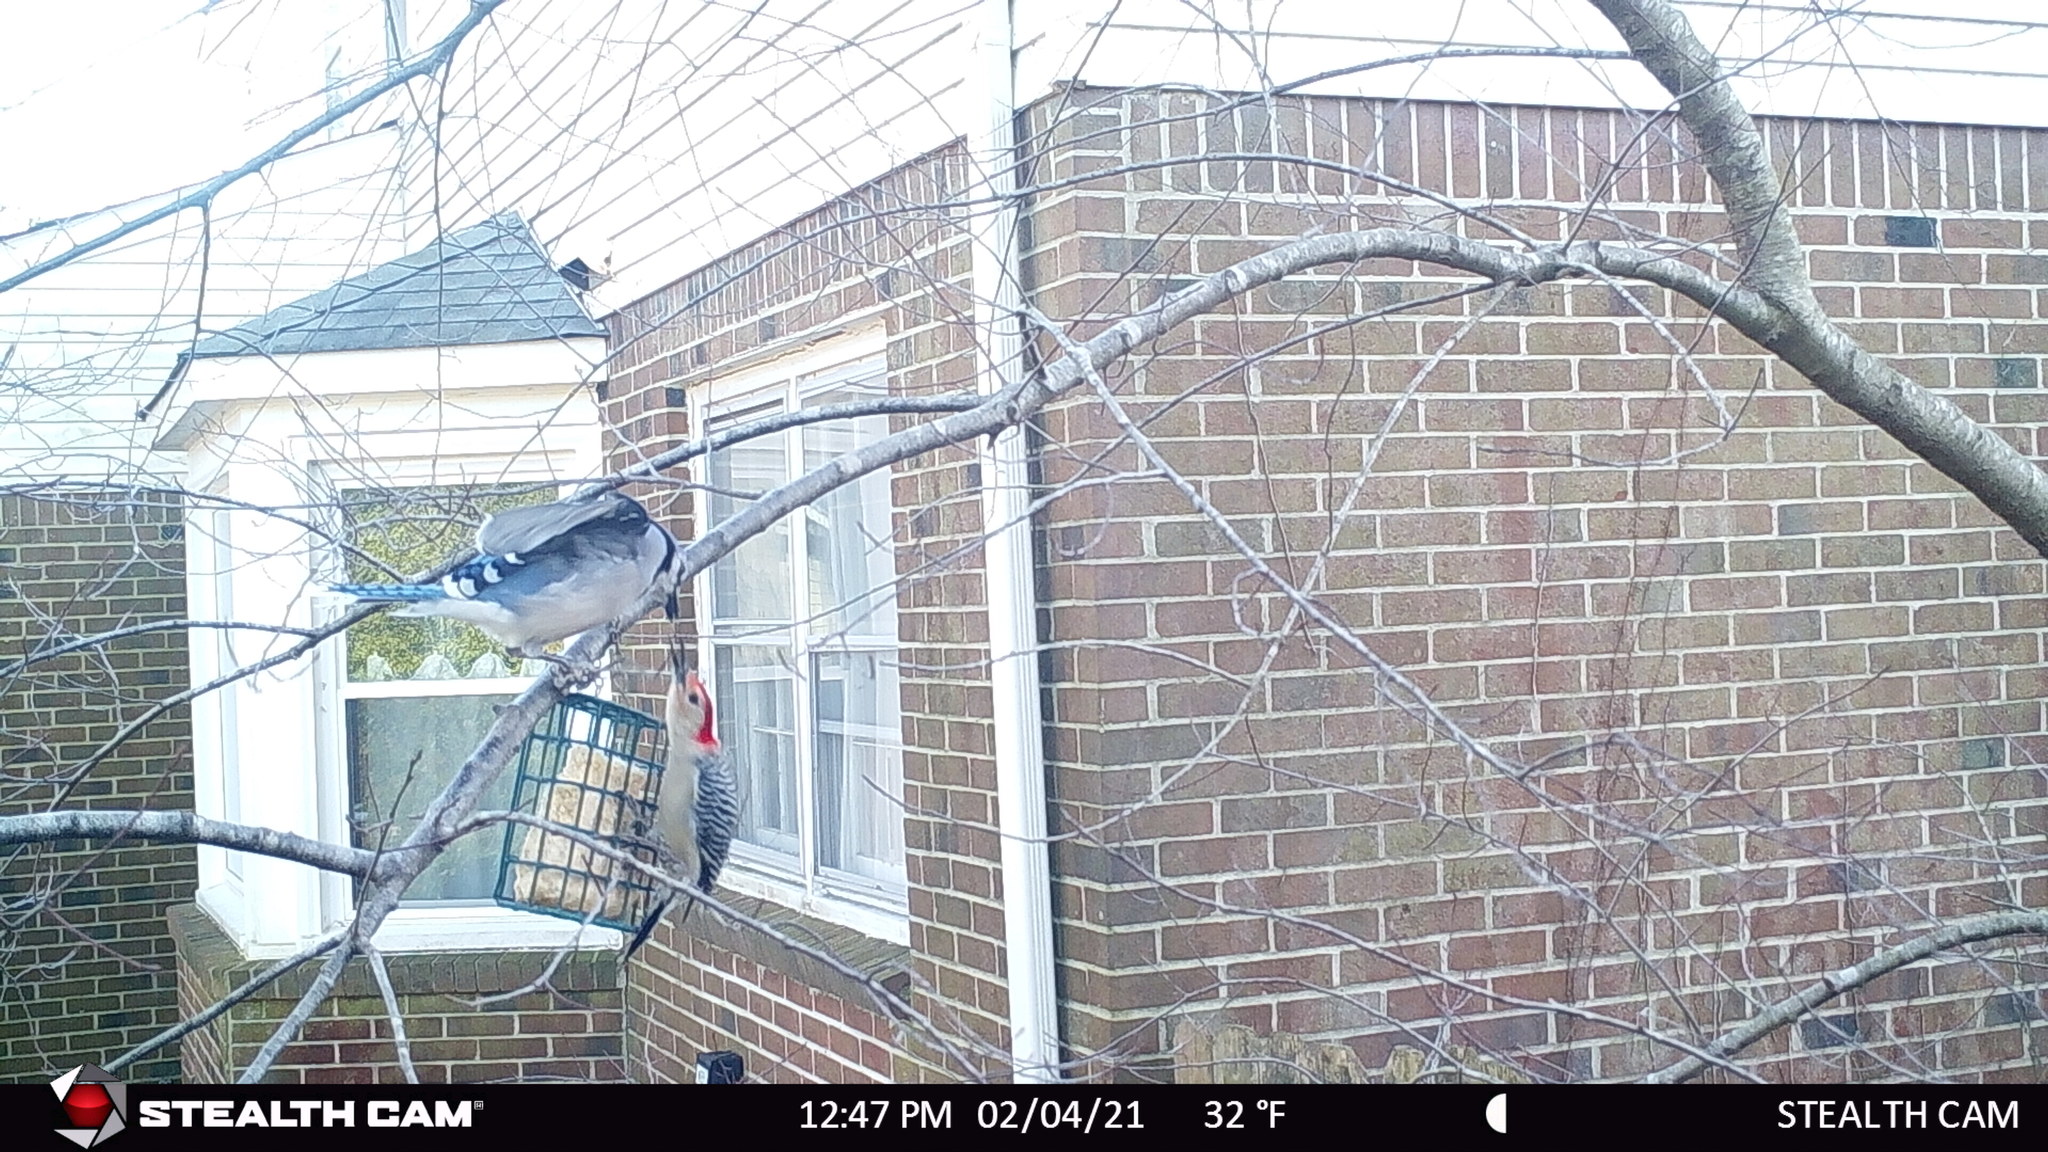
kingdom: Animalia
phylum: Chordata
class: Aves
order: Piciformes
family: Picidae
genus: Melanerpes
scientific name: Melanerpes carolinus
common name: Red-bellied woodpecker
